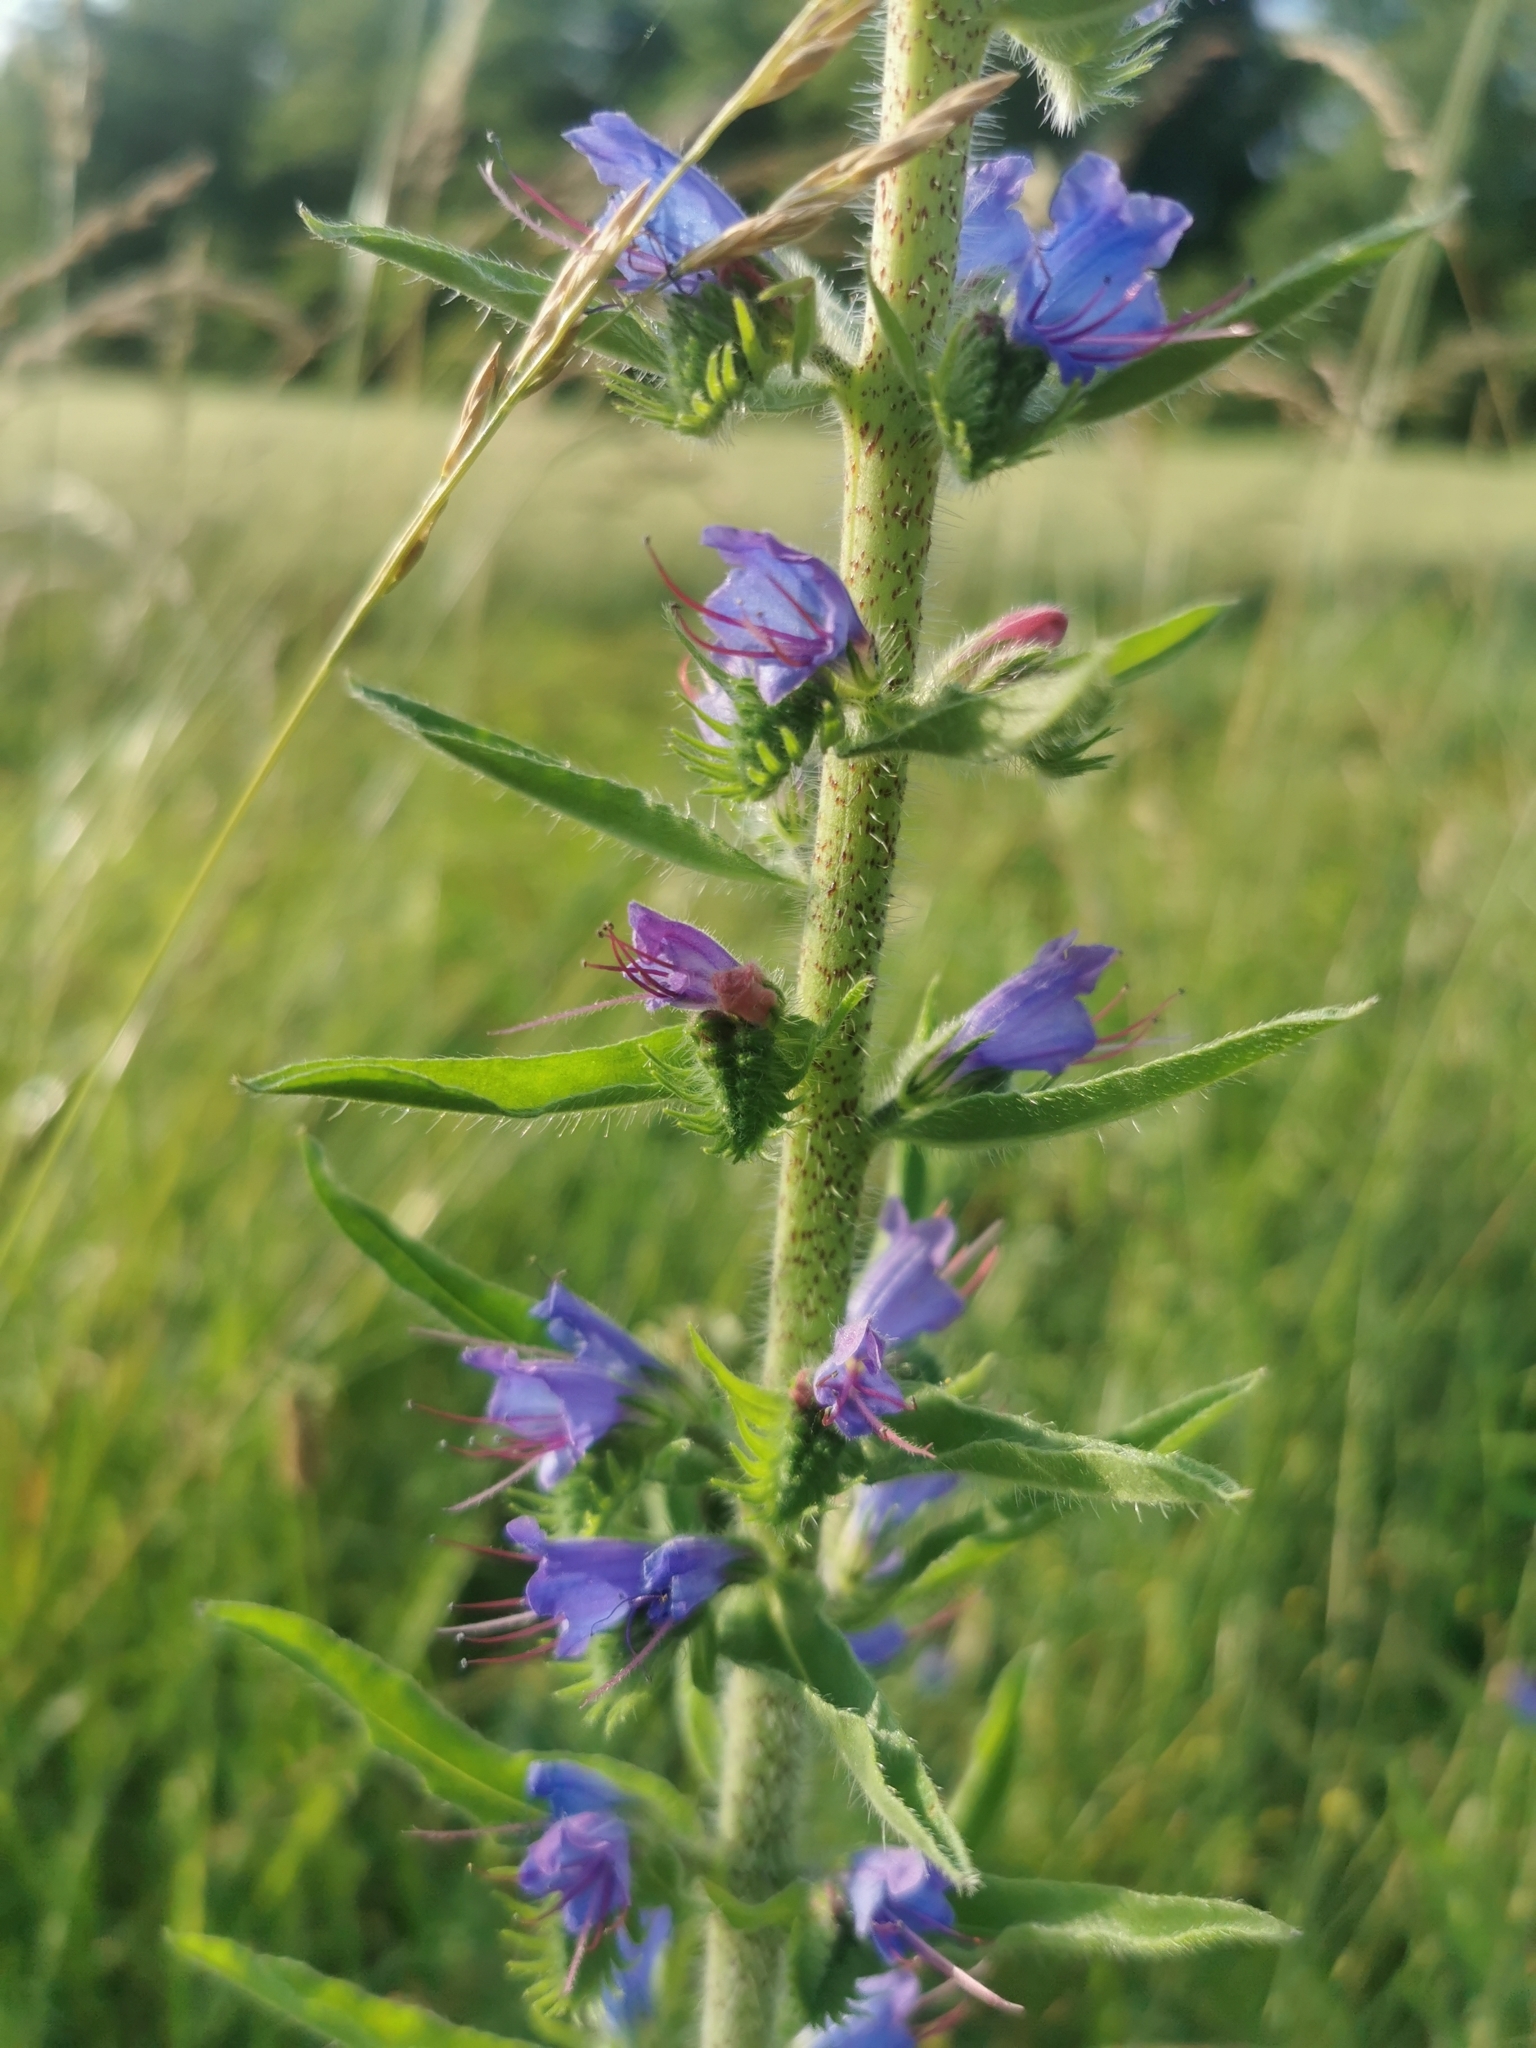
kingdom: Plantae
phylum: Tracheophyta
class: Magnoliopsida
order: Boraginales
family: Boraginaceae
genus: Echium
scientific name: Echium vulgare
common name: Common viper's bugloss
